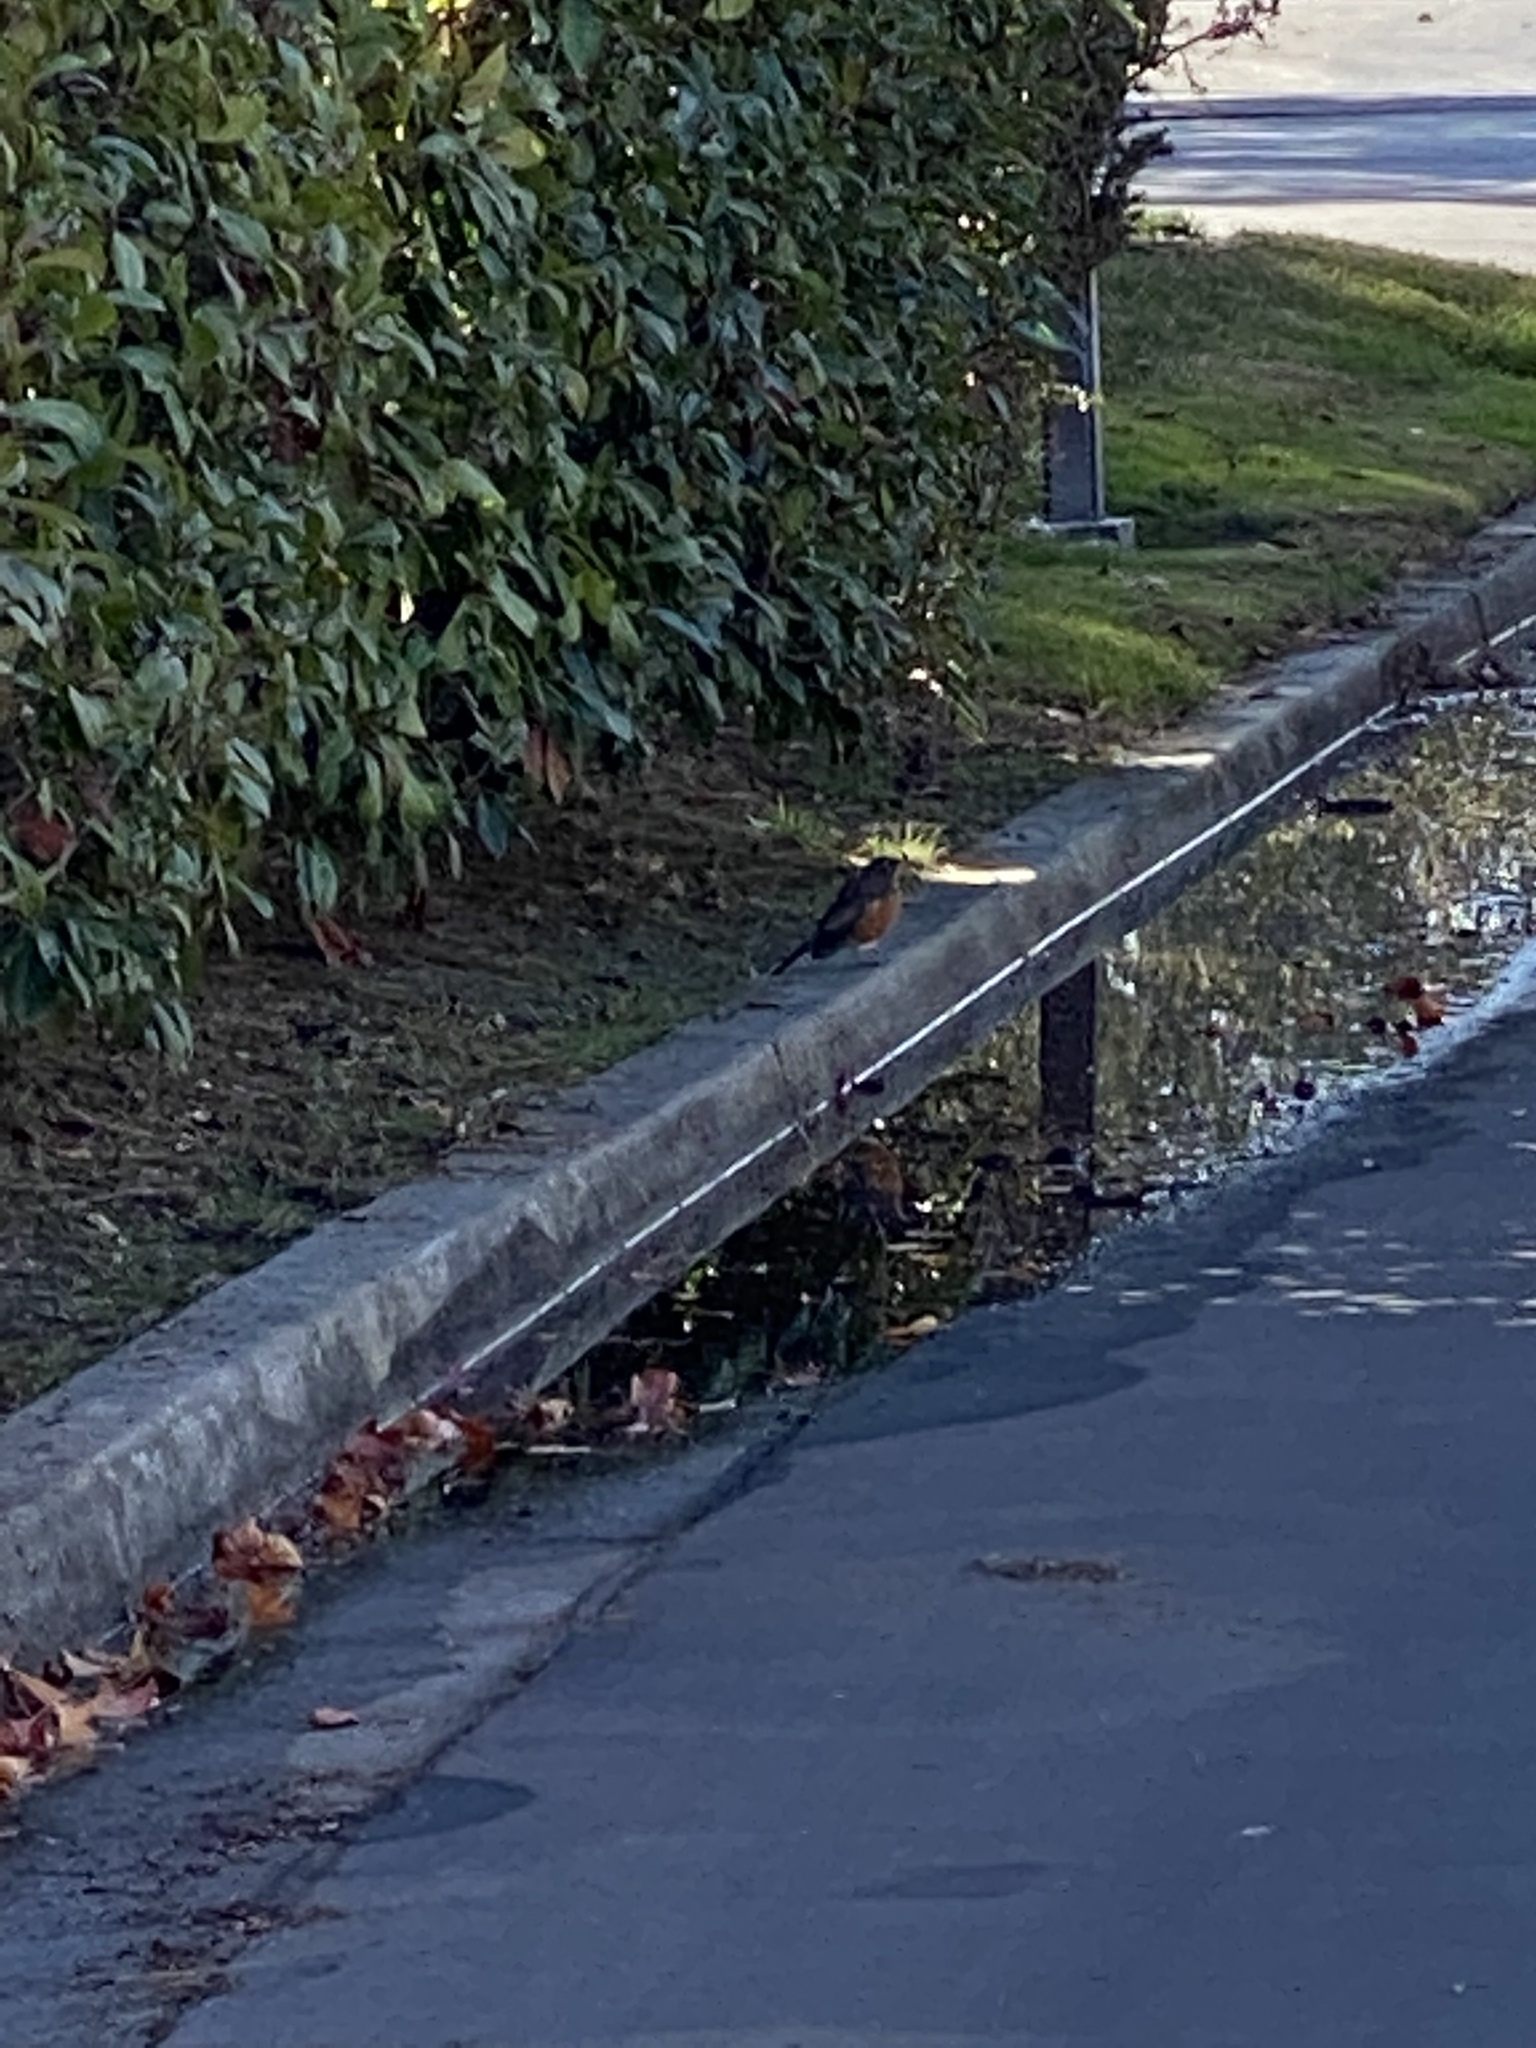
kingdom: Animalia
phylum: Chordata
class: Aves
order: Passeriformes
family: Turdidae
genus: Turdus
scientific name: Turdus migratorius
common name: American robin
